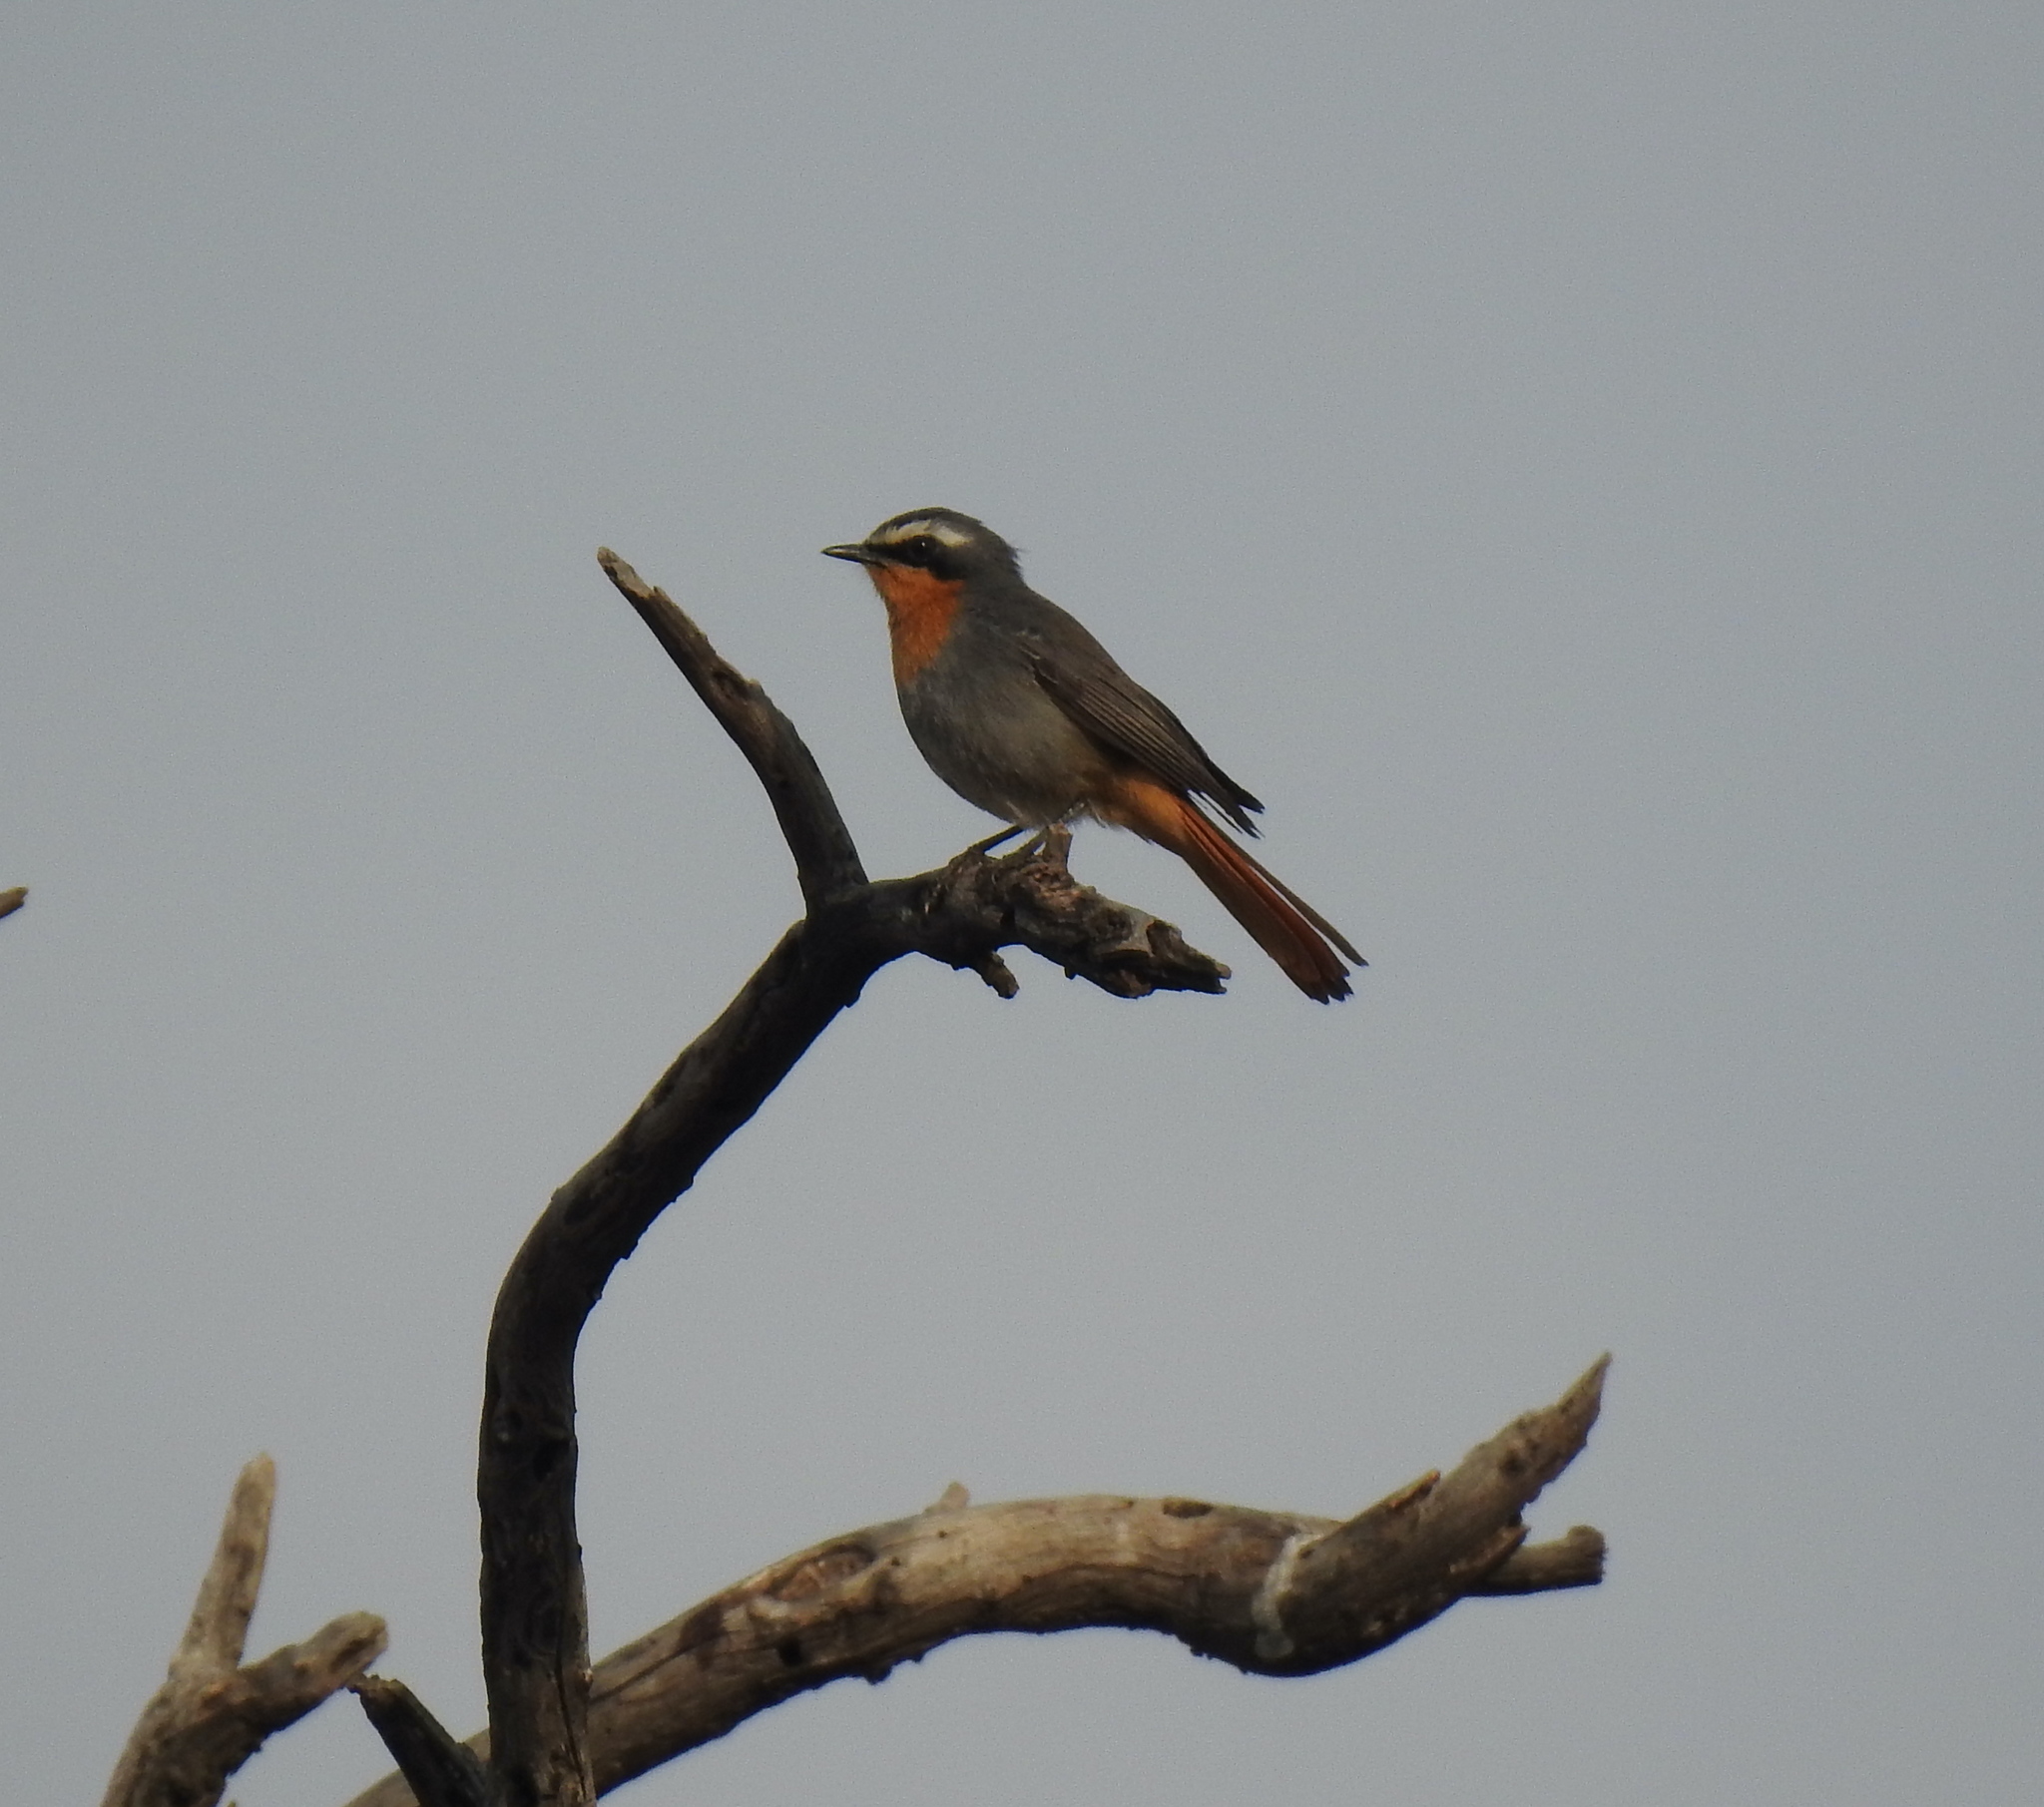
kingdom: Animalia
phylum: Chordata
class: Aves
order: Passeriformes
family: Muscicapidae
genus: Cossypha
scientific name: Cossypha caffra
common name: Cape robin-chat
